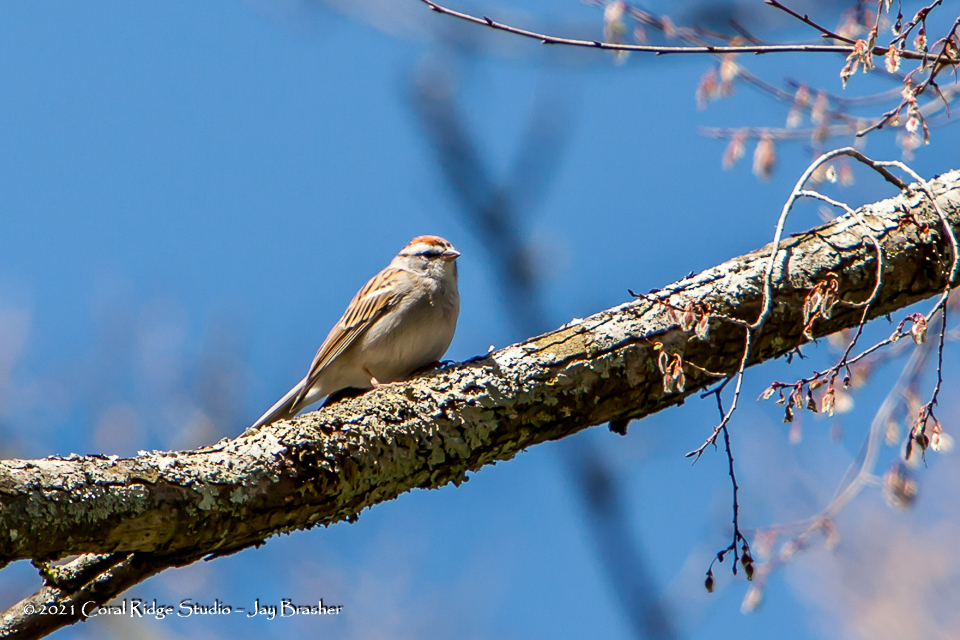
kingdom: Animalia
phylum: Chordata
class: Aves
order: Passeriformes
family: Passerellidae
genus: Spizella
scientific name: Spizella passerina
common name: Chipping sparrow
